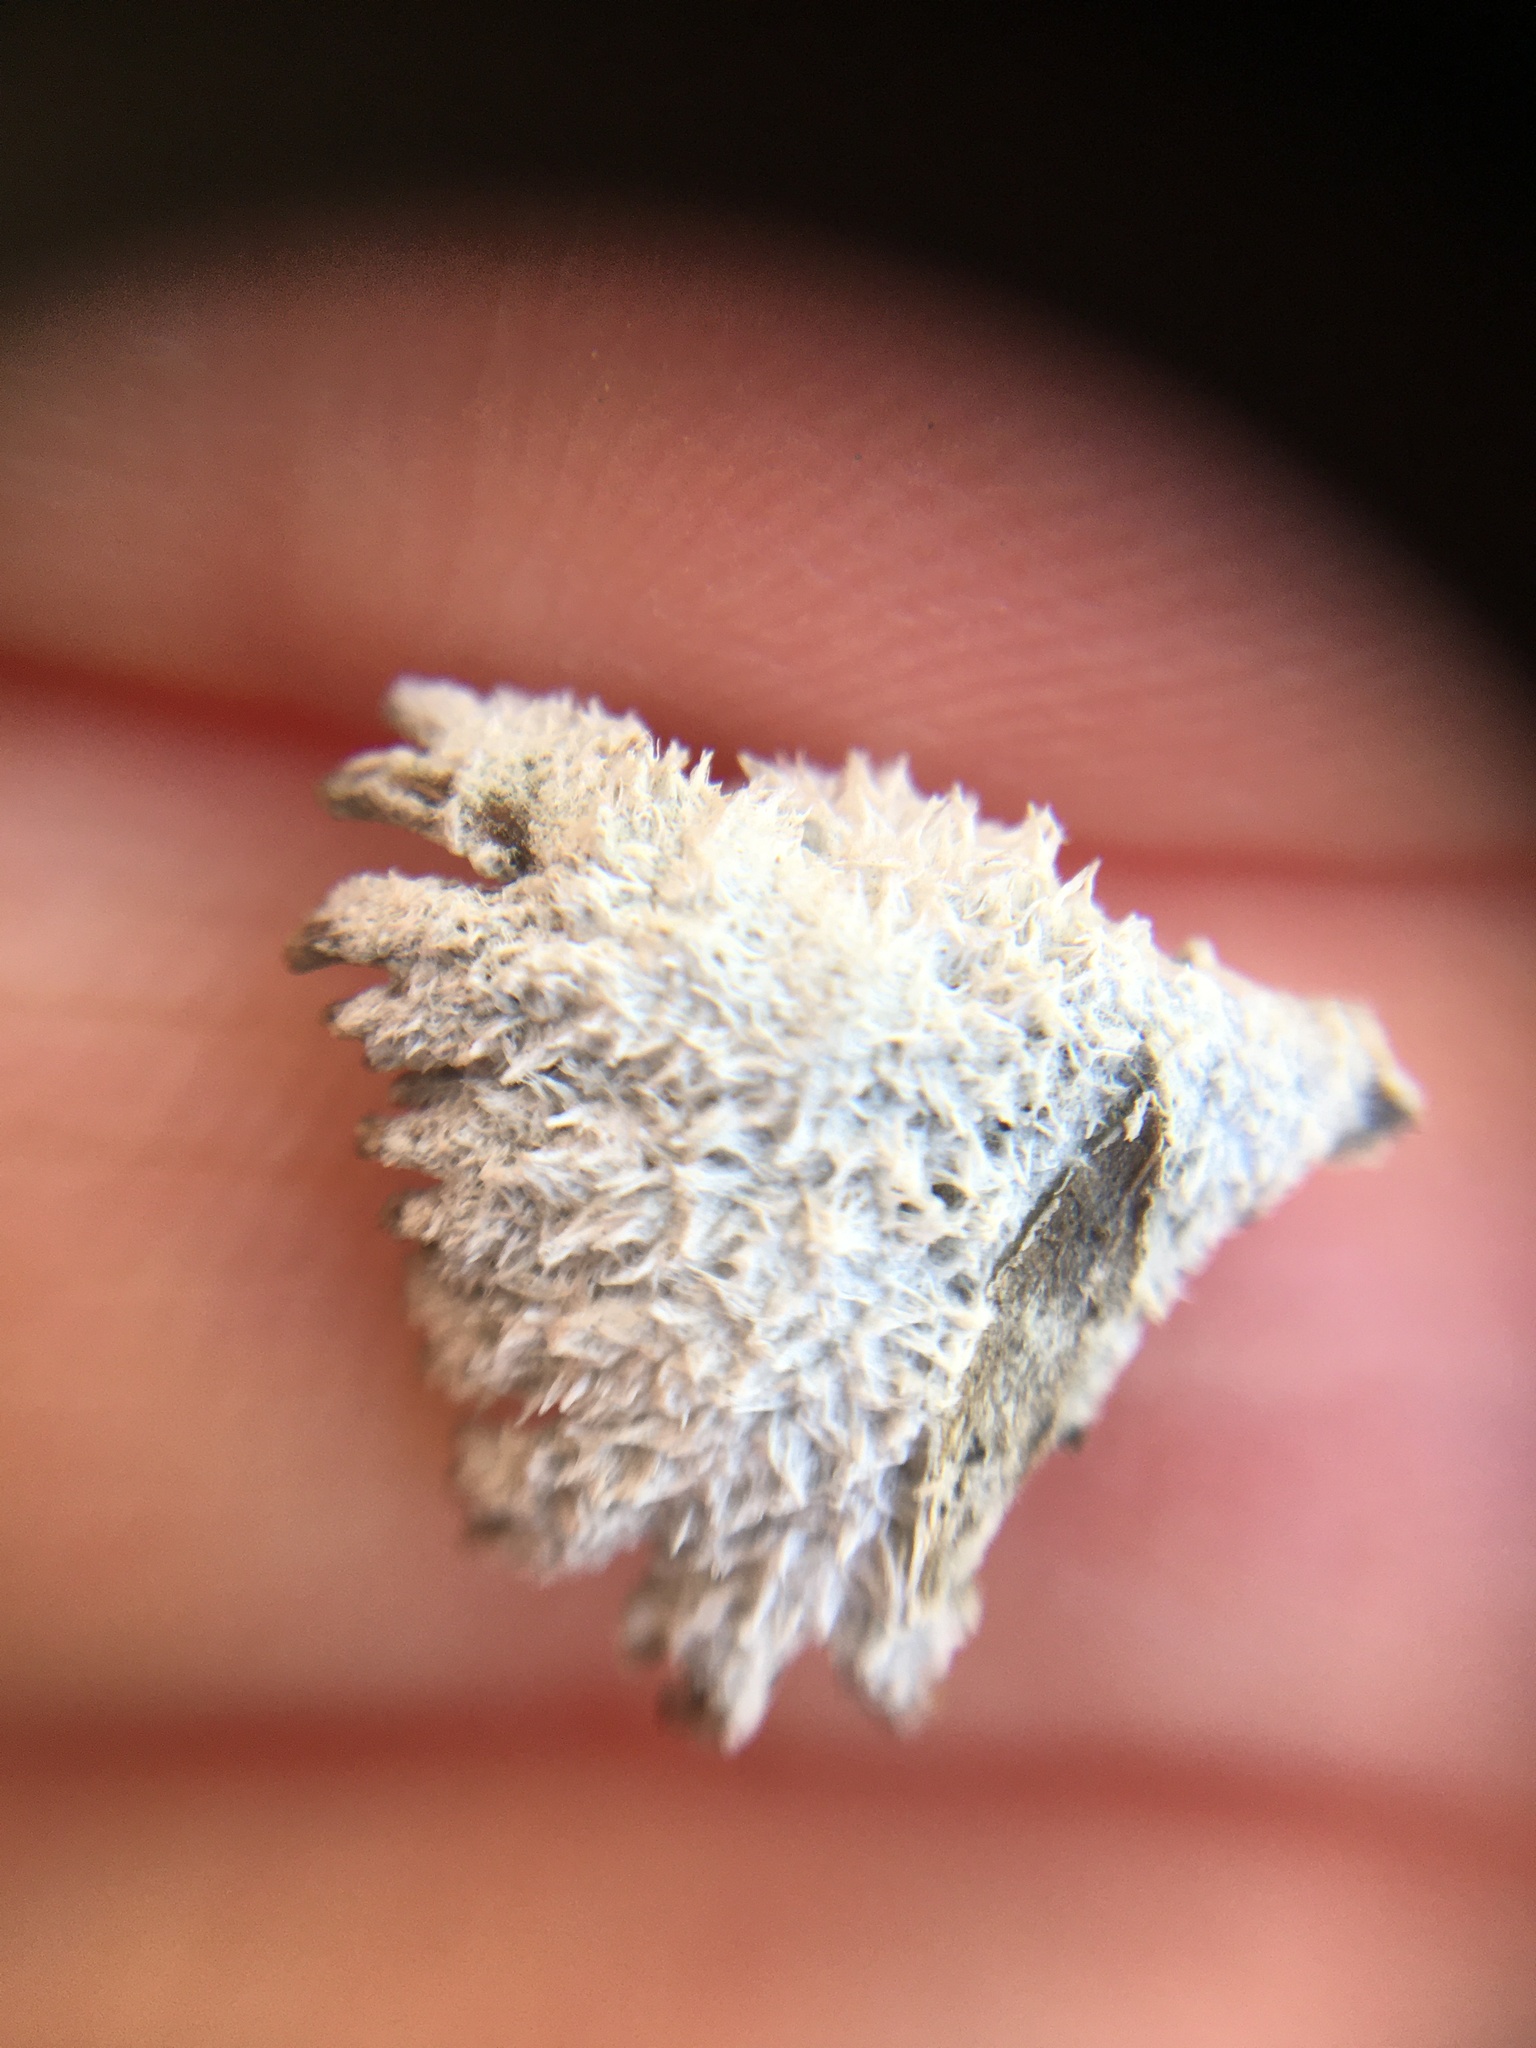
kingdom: Fungi
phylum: Basidiomycota
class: Agaricomycetes
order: Agaricales
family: Schizophyllaceae
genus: Schizophyllum
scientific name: Schizophyllum commune
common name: Common porecrust
